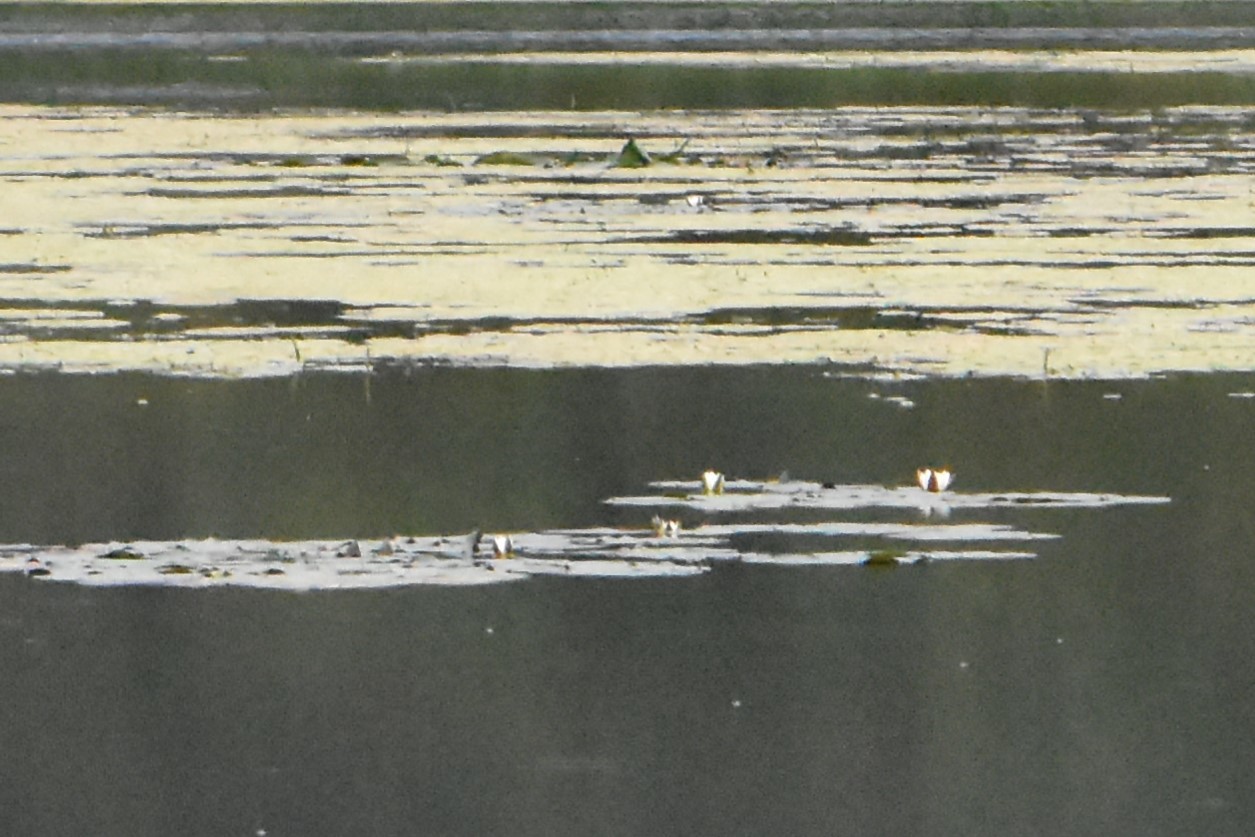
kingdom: Plantae
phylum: Tracheophyta
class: Magnoliopsida
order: Nymphaeales
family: Nymphaeaceae
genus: Nymphaea
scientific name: Nymphaea candida
